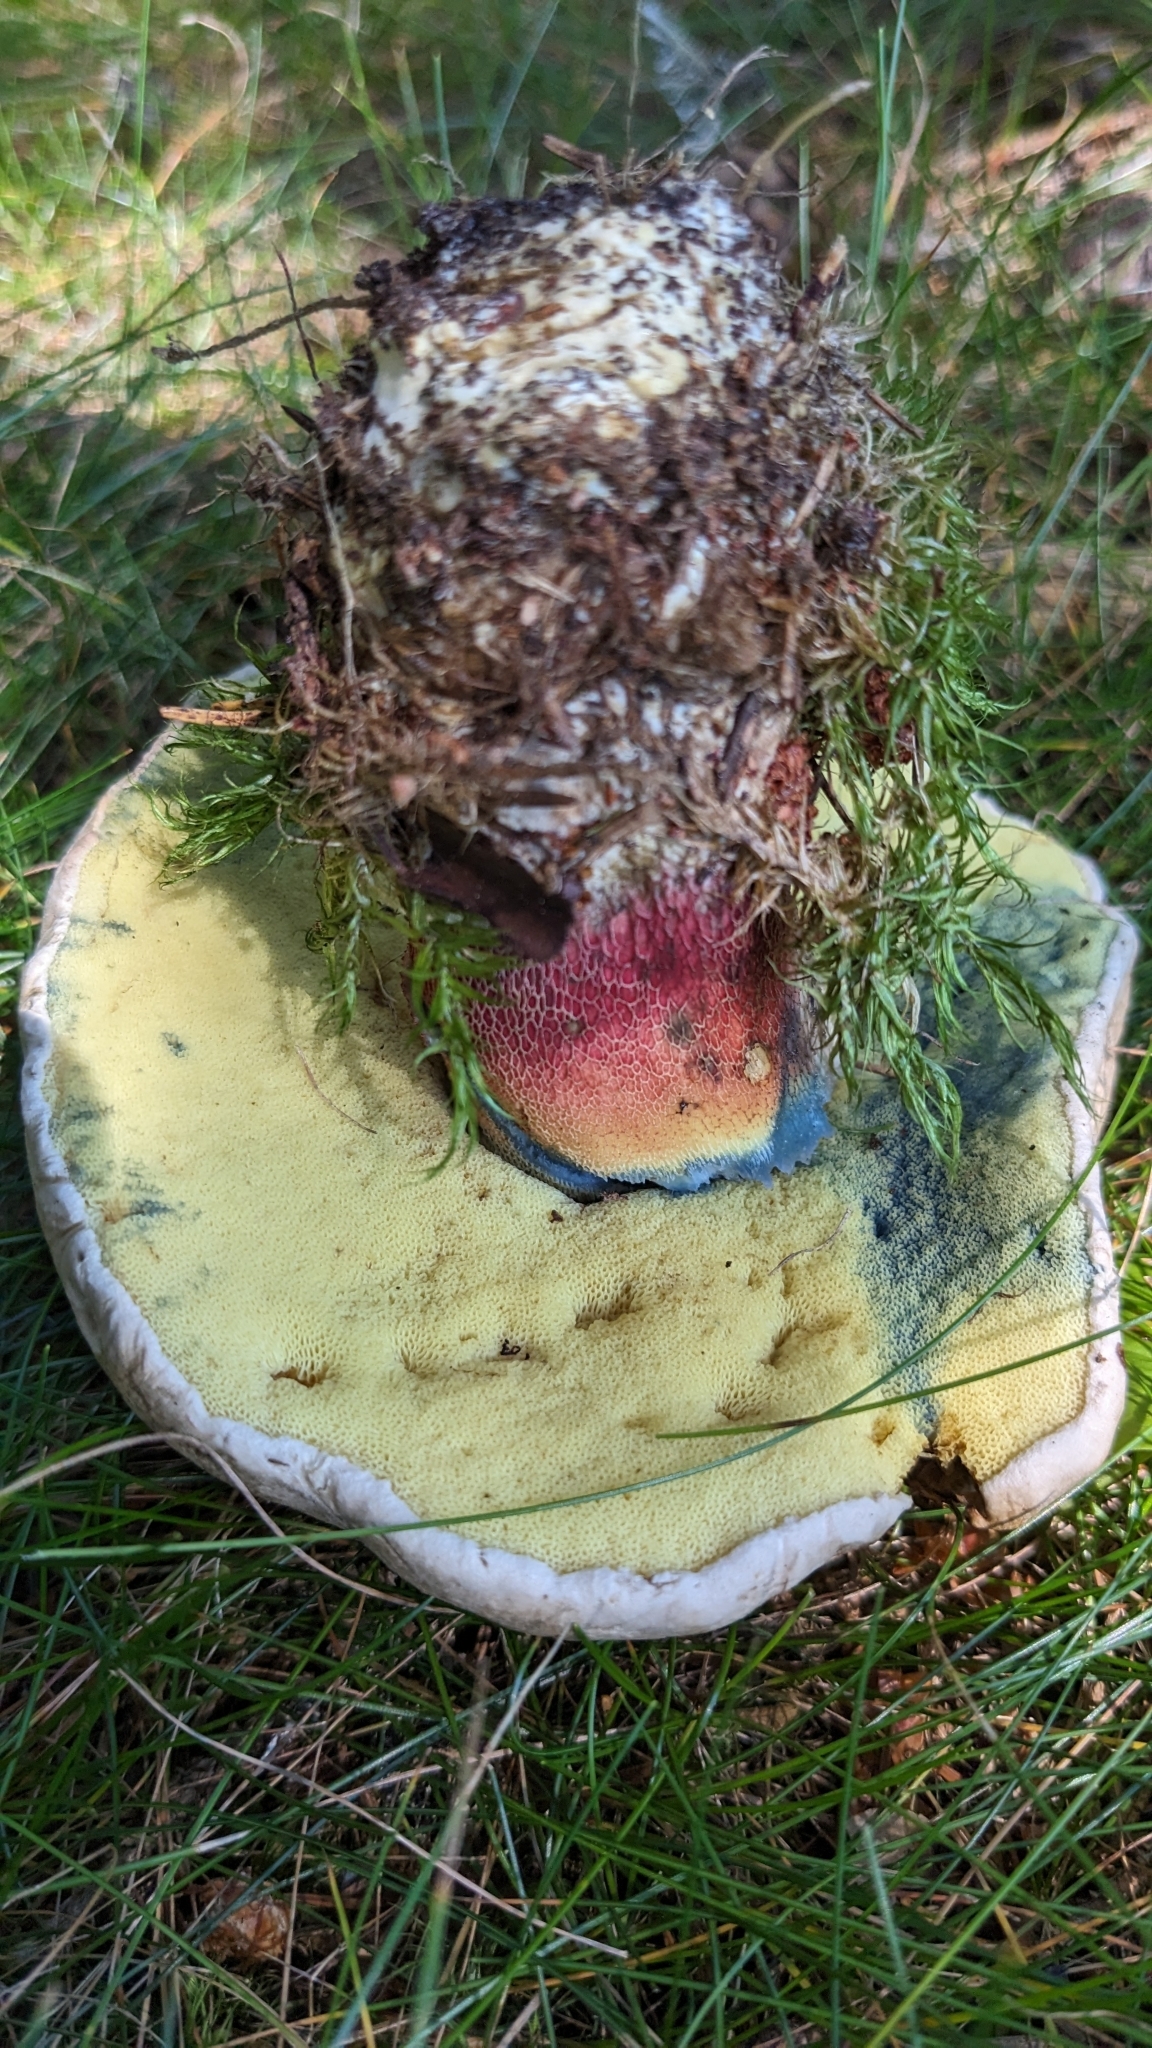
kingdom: Fungi
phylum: Basidiomycota
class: Agaricomycetes
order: Boletales
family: Boletaceae
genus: Caloboletus
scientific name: Caloboletus calopus
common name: Bitter beech bolete
